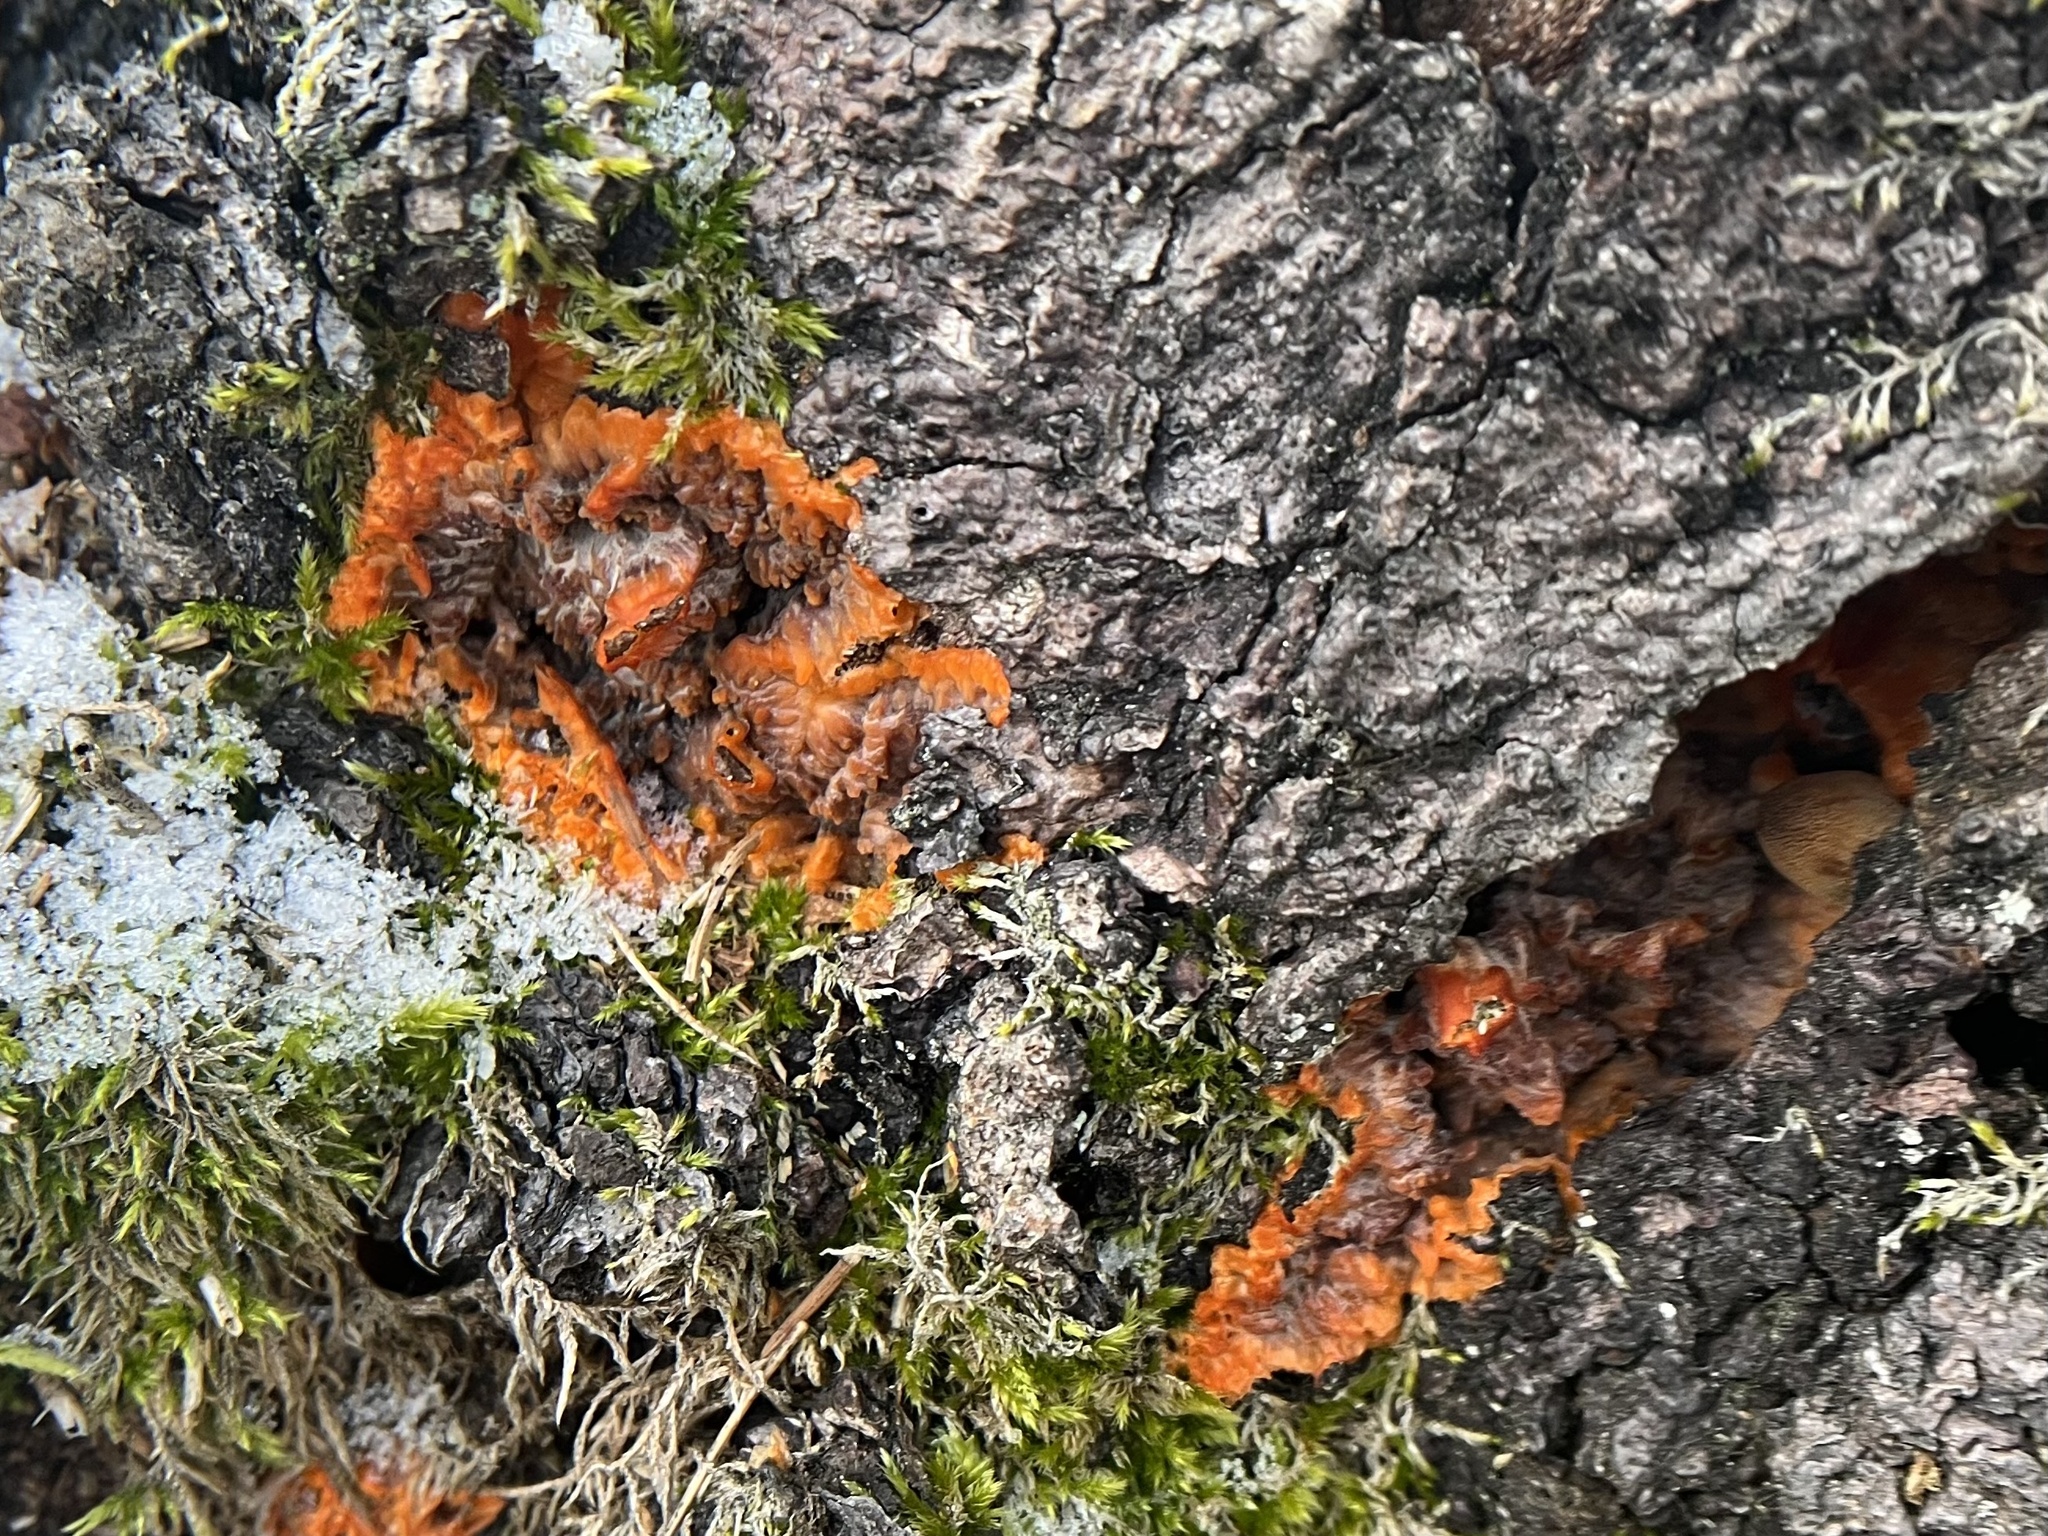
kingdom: Fungi
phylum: Basidiomycota
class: Agaricomycetes
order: Polyporales
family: Meruliaceae
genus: Phlebia
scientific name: Phlebia radiata
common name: Wrinkled crust
